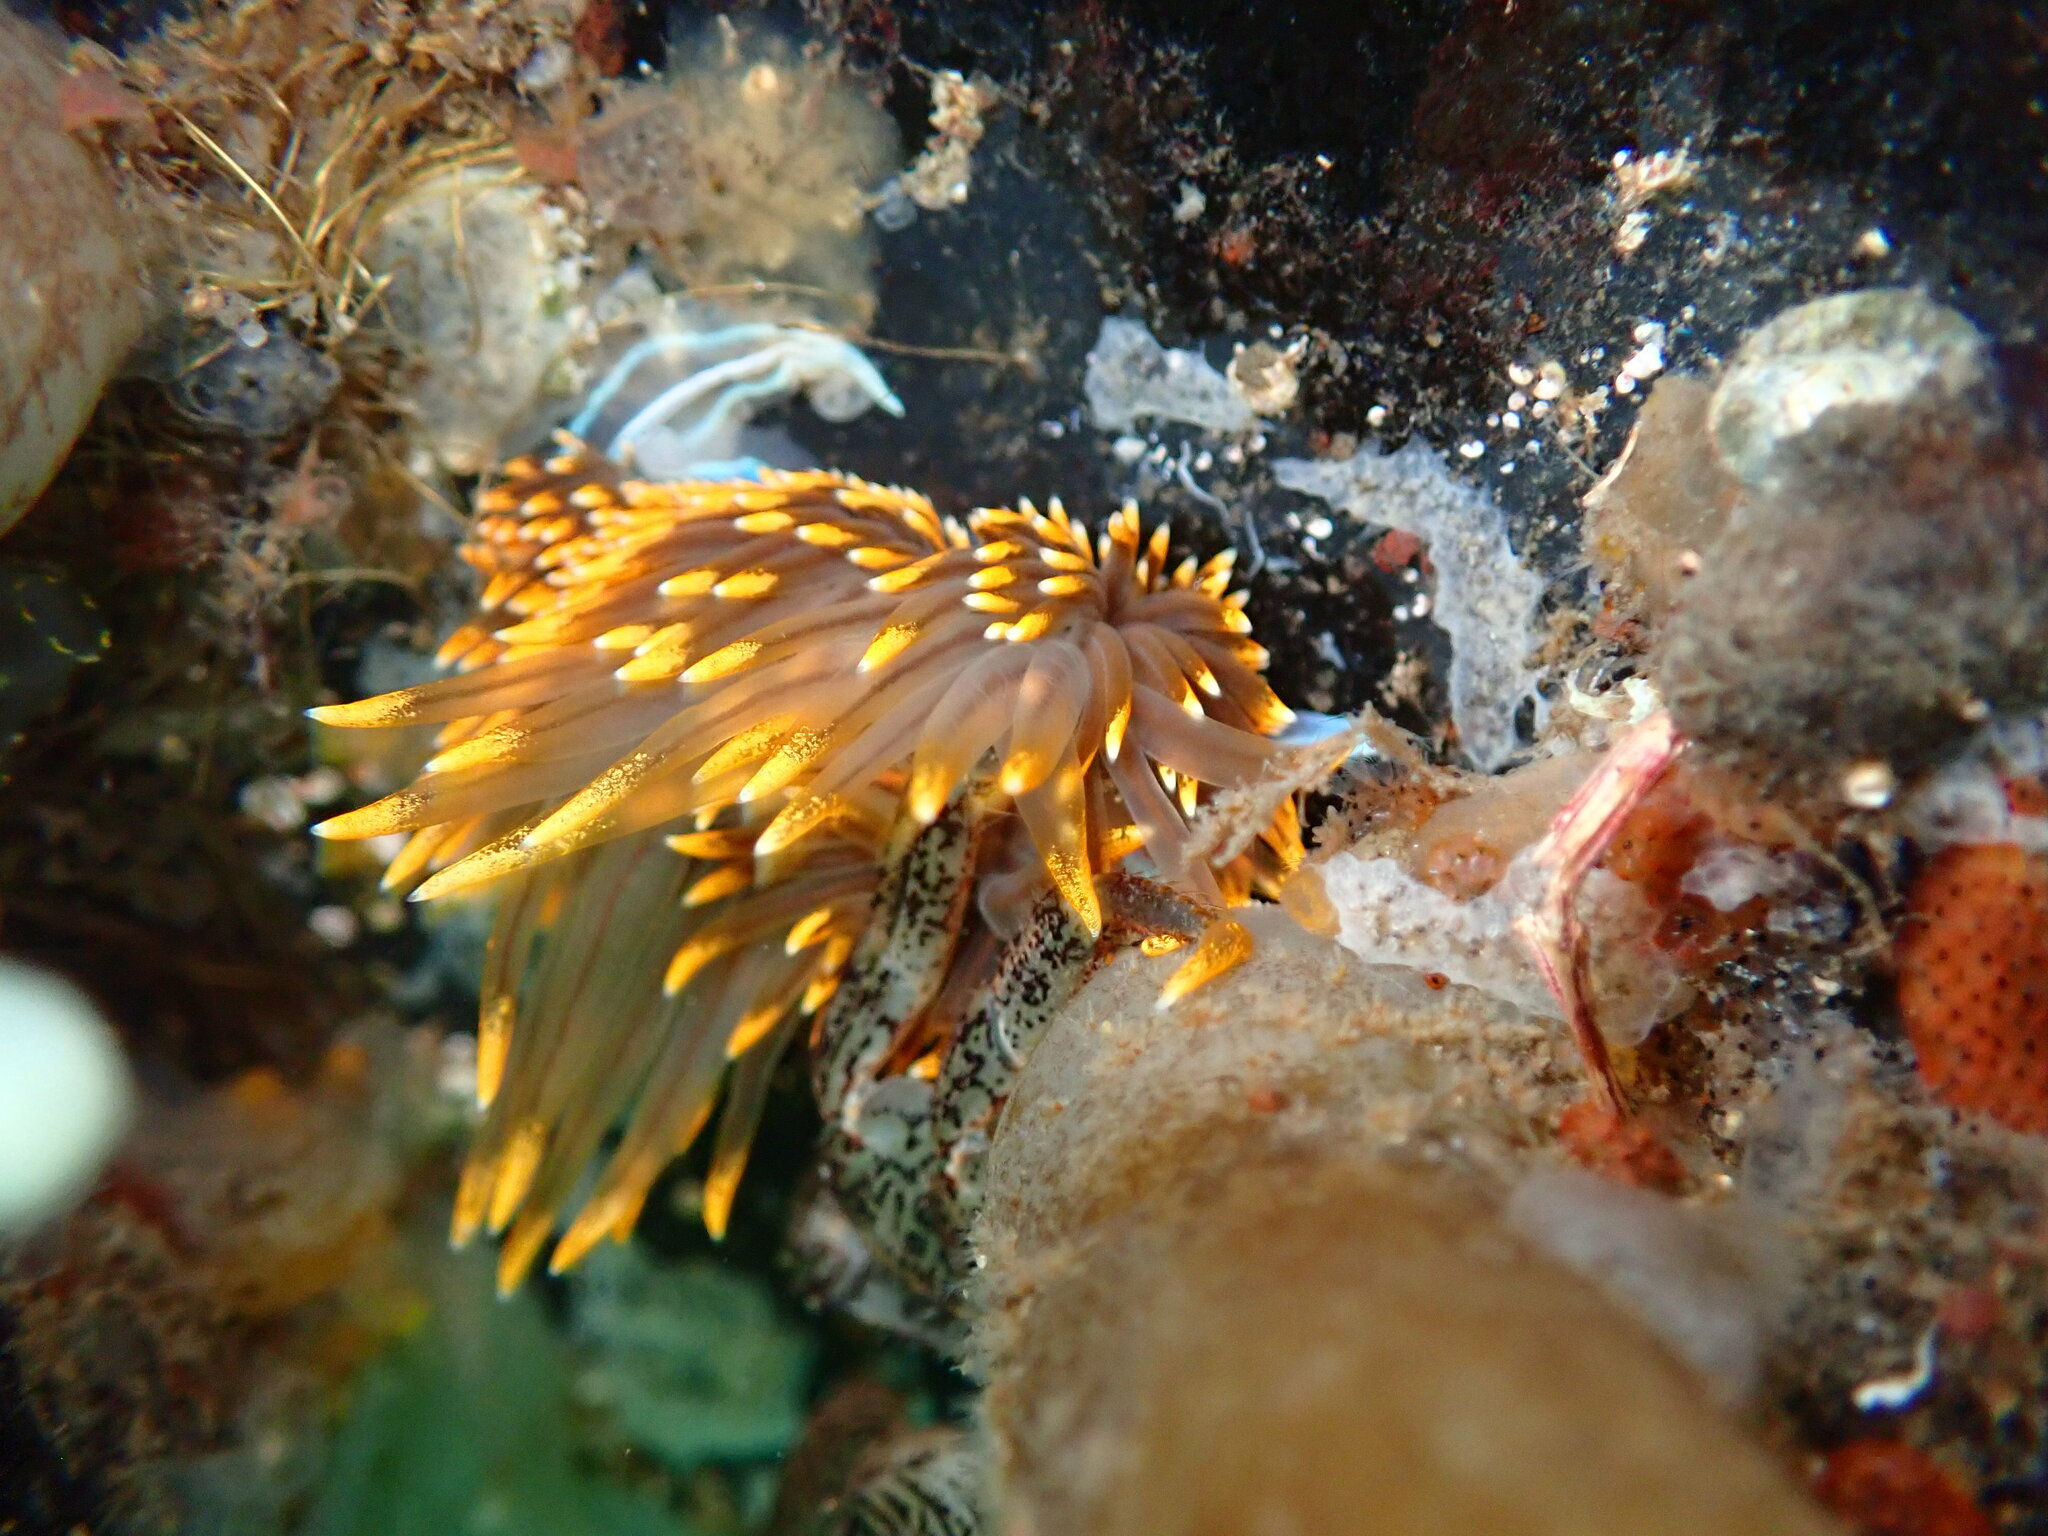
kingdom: Animalia
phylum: Mollusca
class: Gastropoda
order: Nudibranchia
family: Myrrhinidae
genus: Hermissenda
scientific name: Hermissenda opalescens
